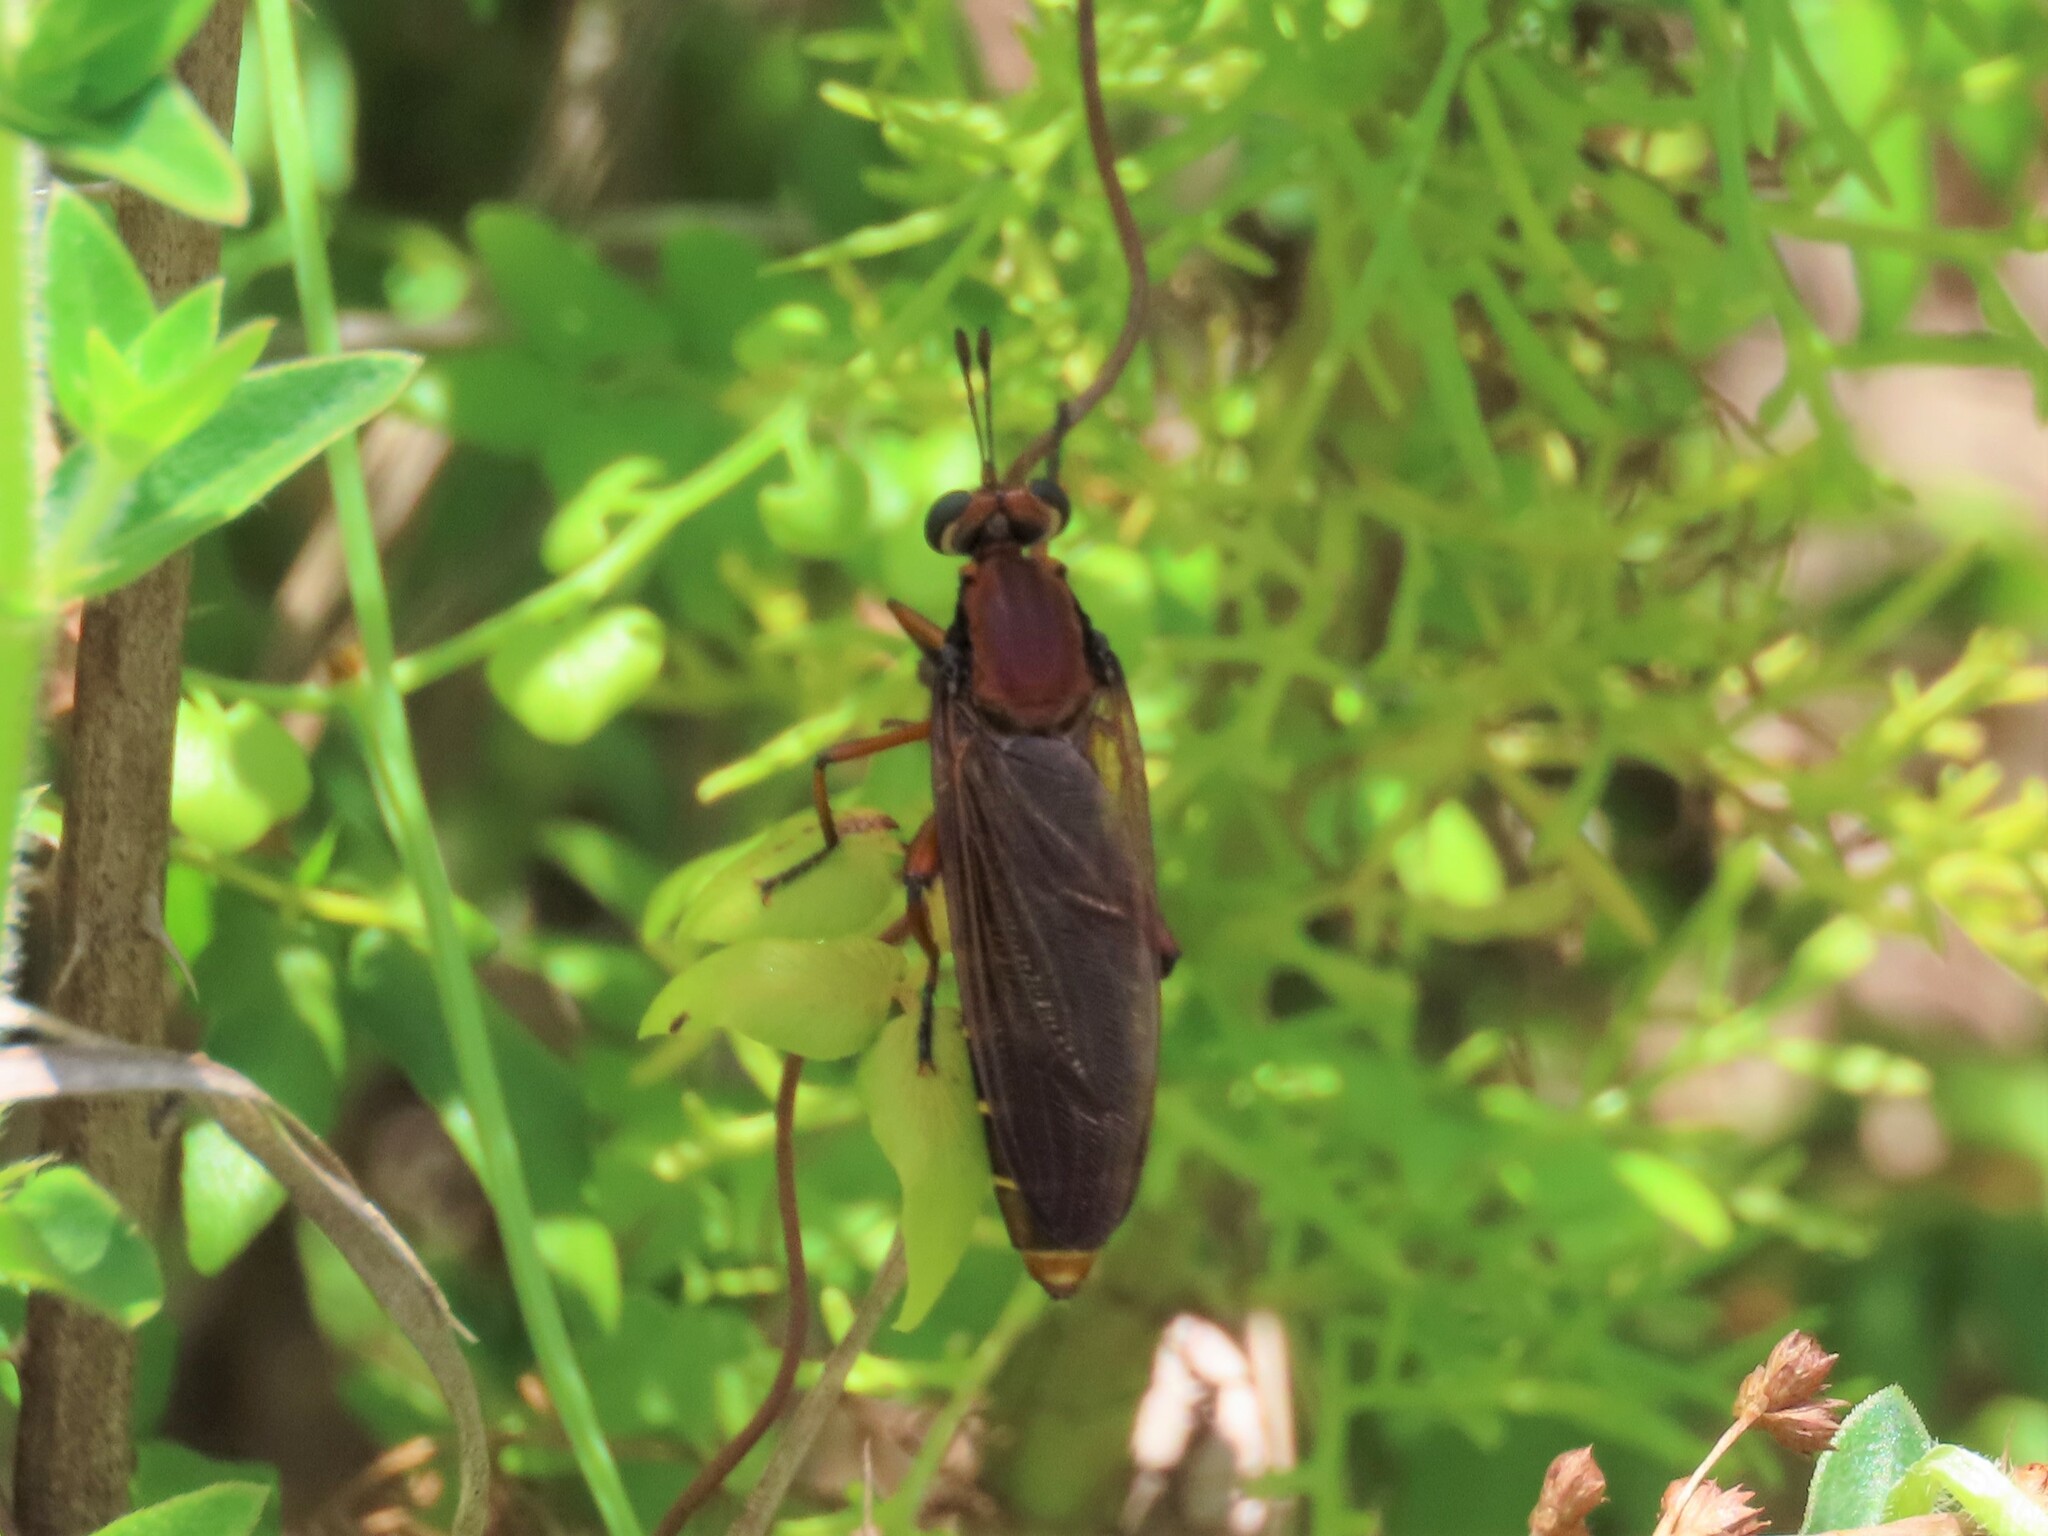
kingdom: Animalia
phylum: Arthropoda
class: Insecta
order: Diptera
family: Mydidae
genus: Mydas
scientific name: Mydas maculiventris
